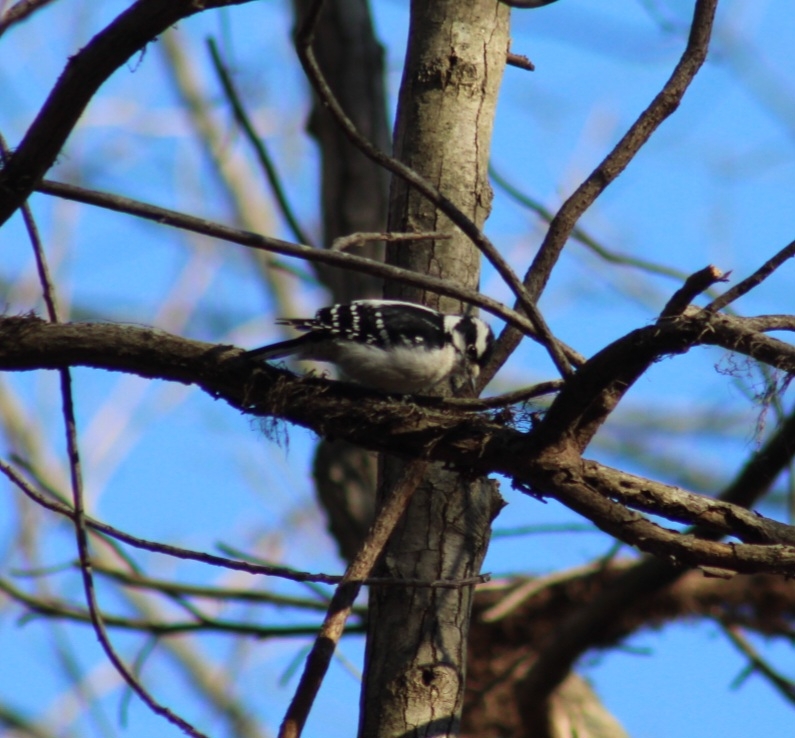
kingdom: Animalia
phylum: Chordata
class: Aves
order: Piciformes
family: Picidae
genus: Dryobates
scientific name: Dryobates pubescens
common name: Downy woodpecker
